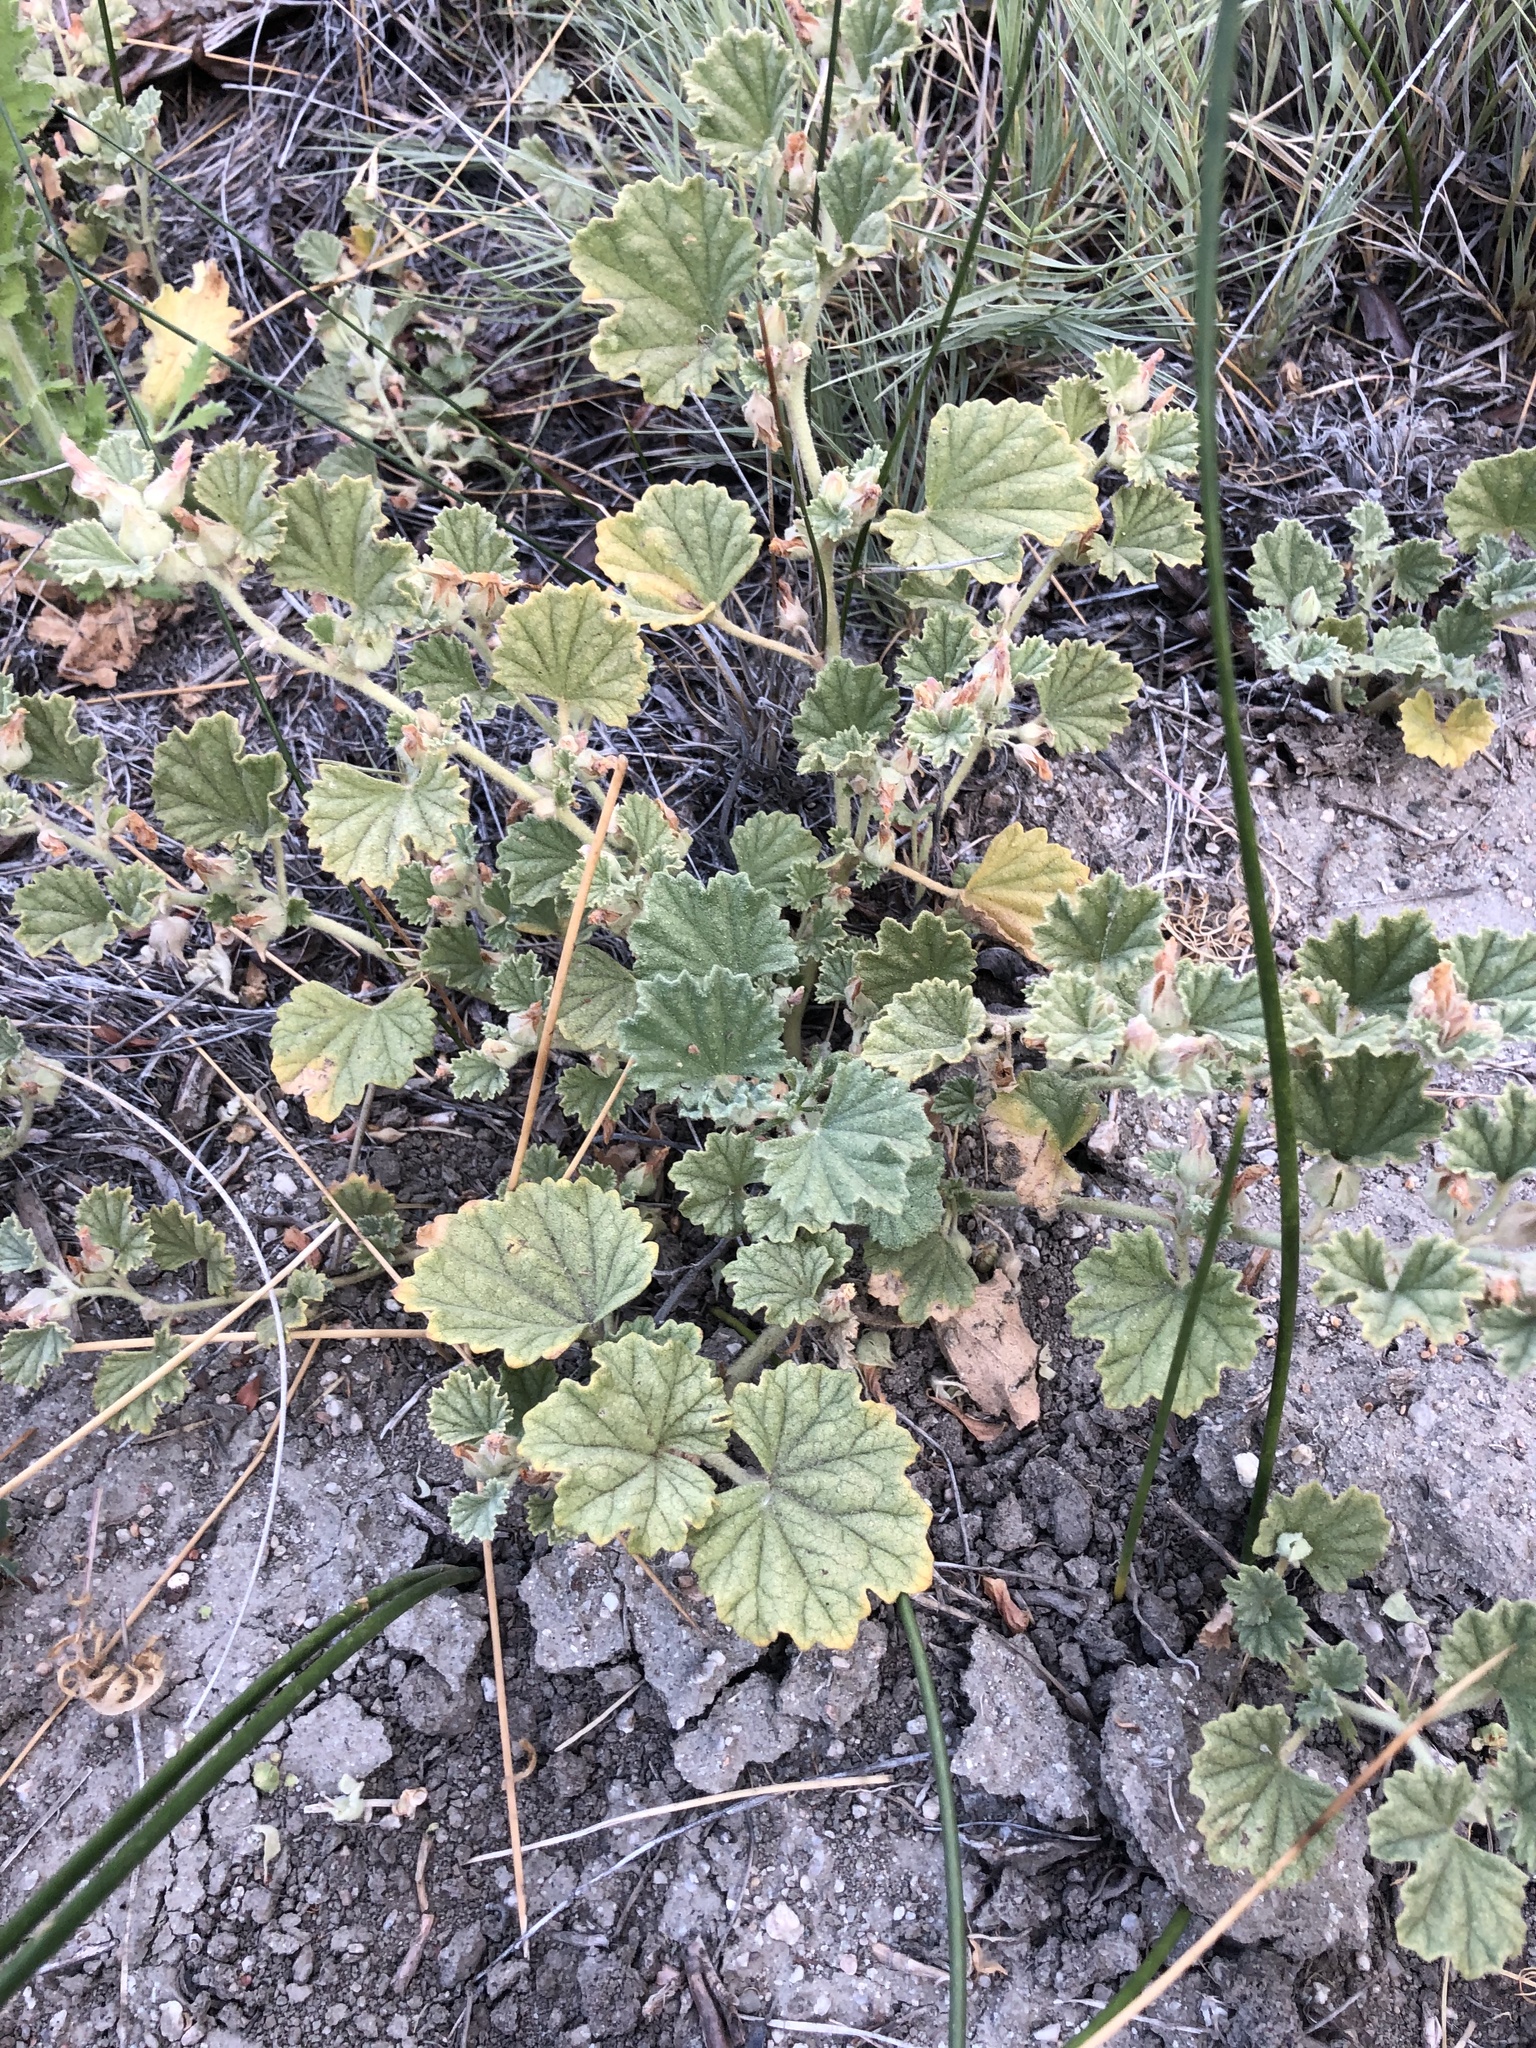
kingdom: Plantae
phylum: Tracheophyta
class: Magnoliopsida
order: Malvales
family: Malvaceae
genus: Malvella
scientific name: Malvella leprosa
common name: Alkali-mallow
